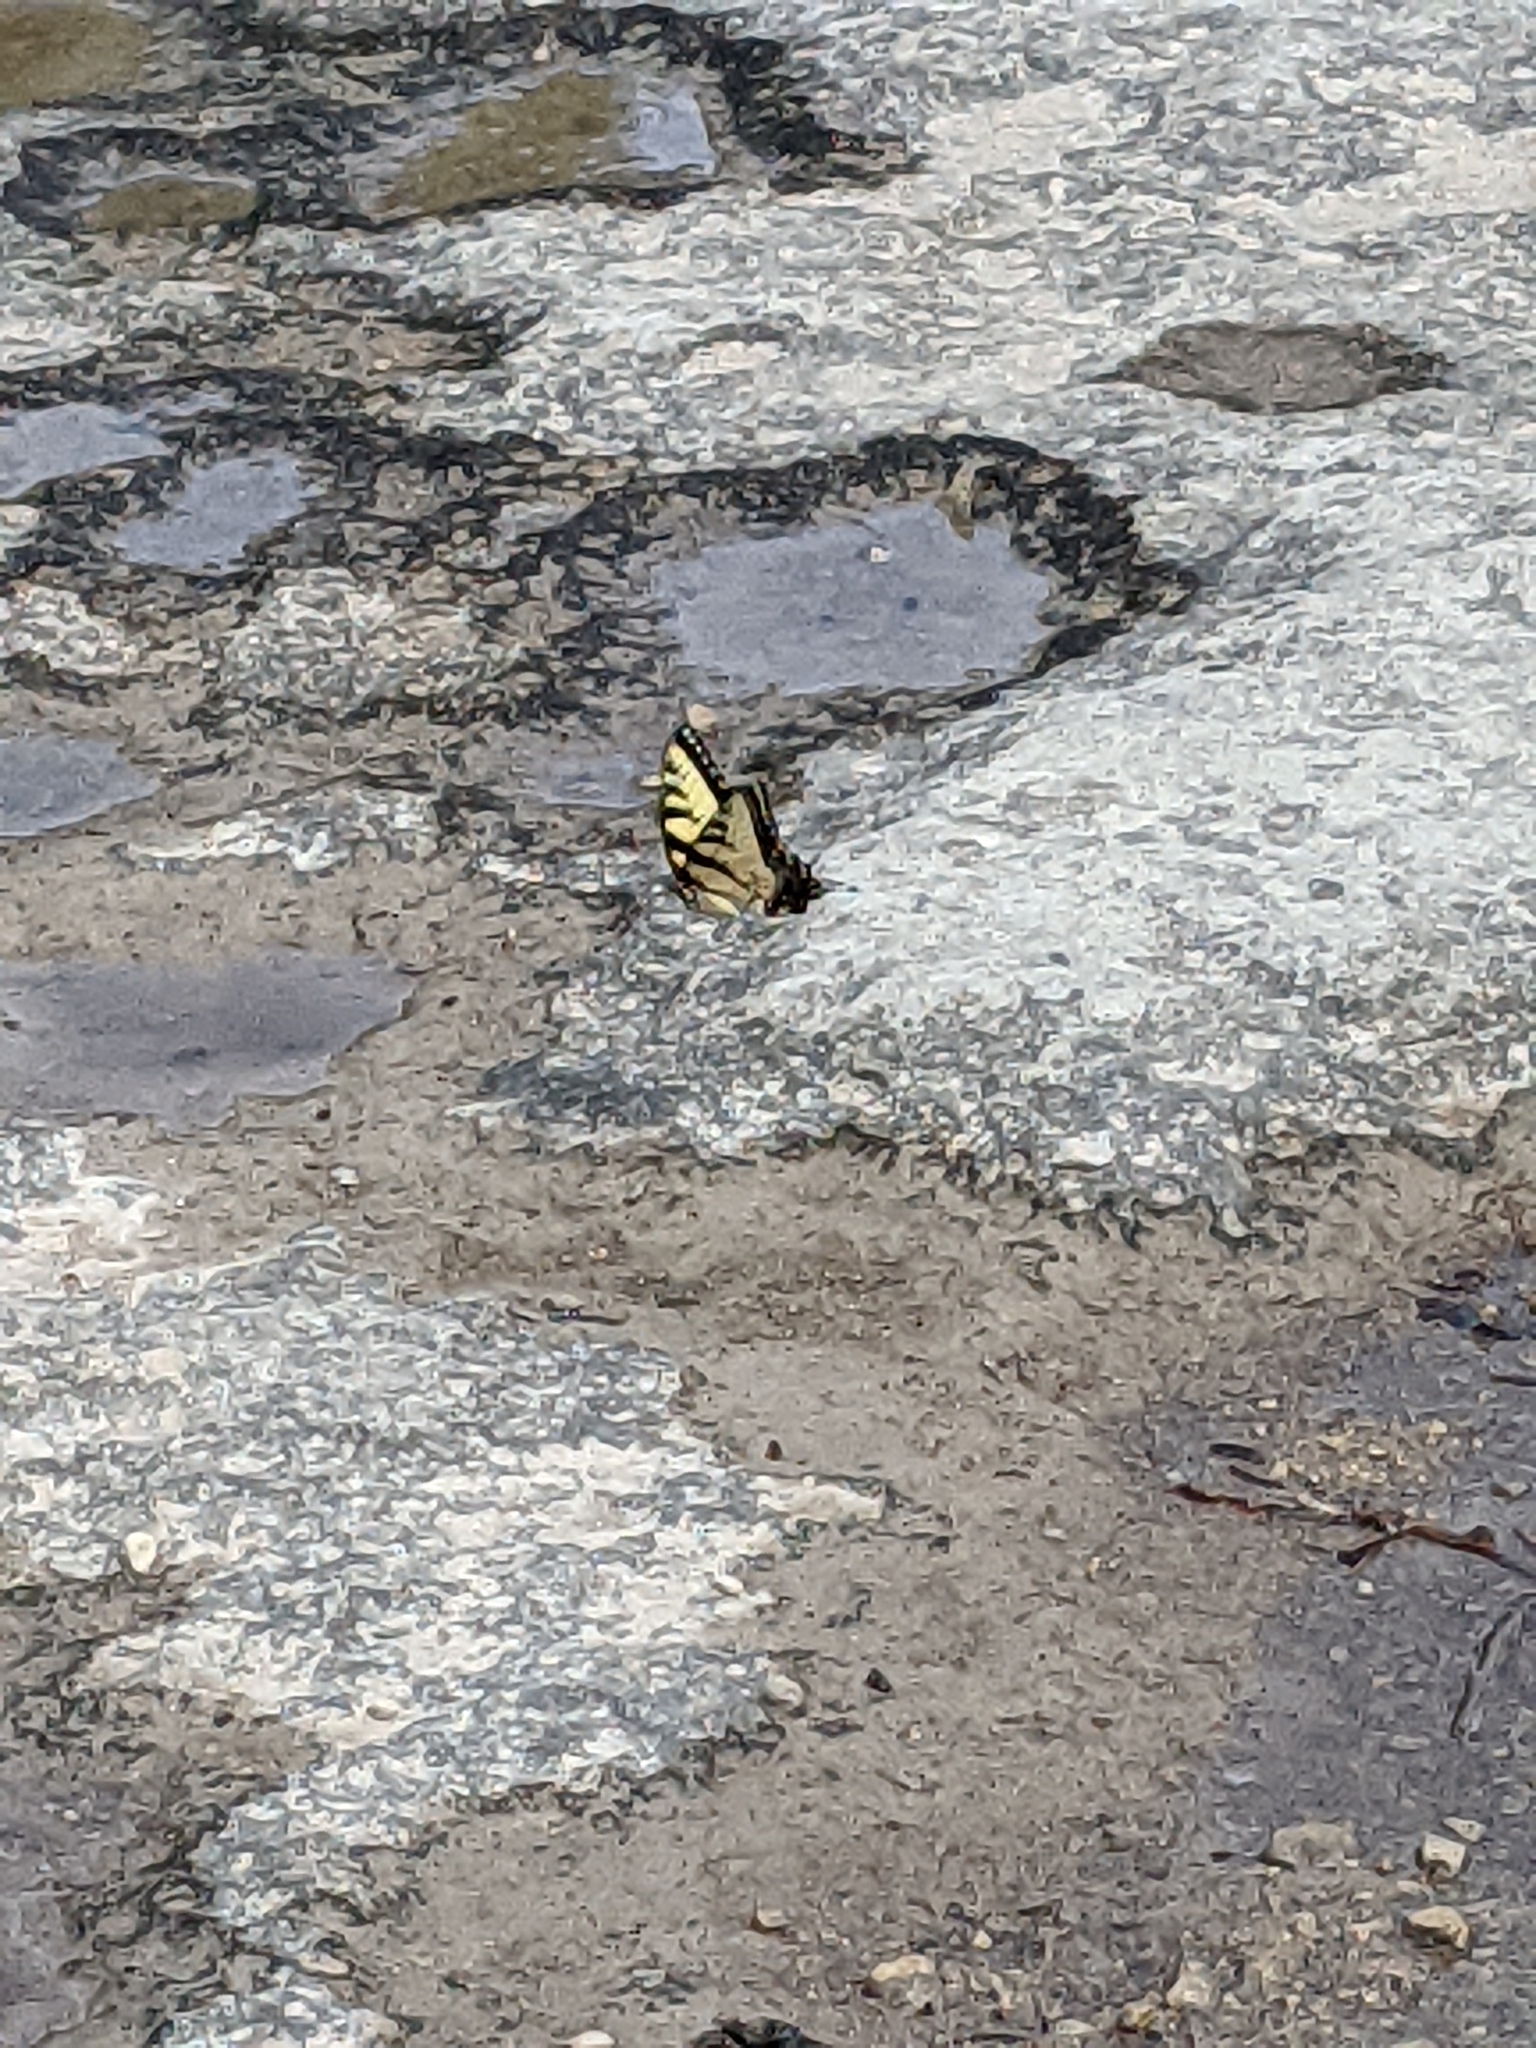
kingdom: Animalia
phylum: Arthropoda
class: Insecta
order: Lepidoptera
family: Papilionidae
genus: Papilio
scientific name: Papilio glaucus
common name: Tiger swallowtail
